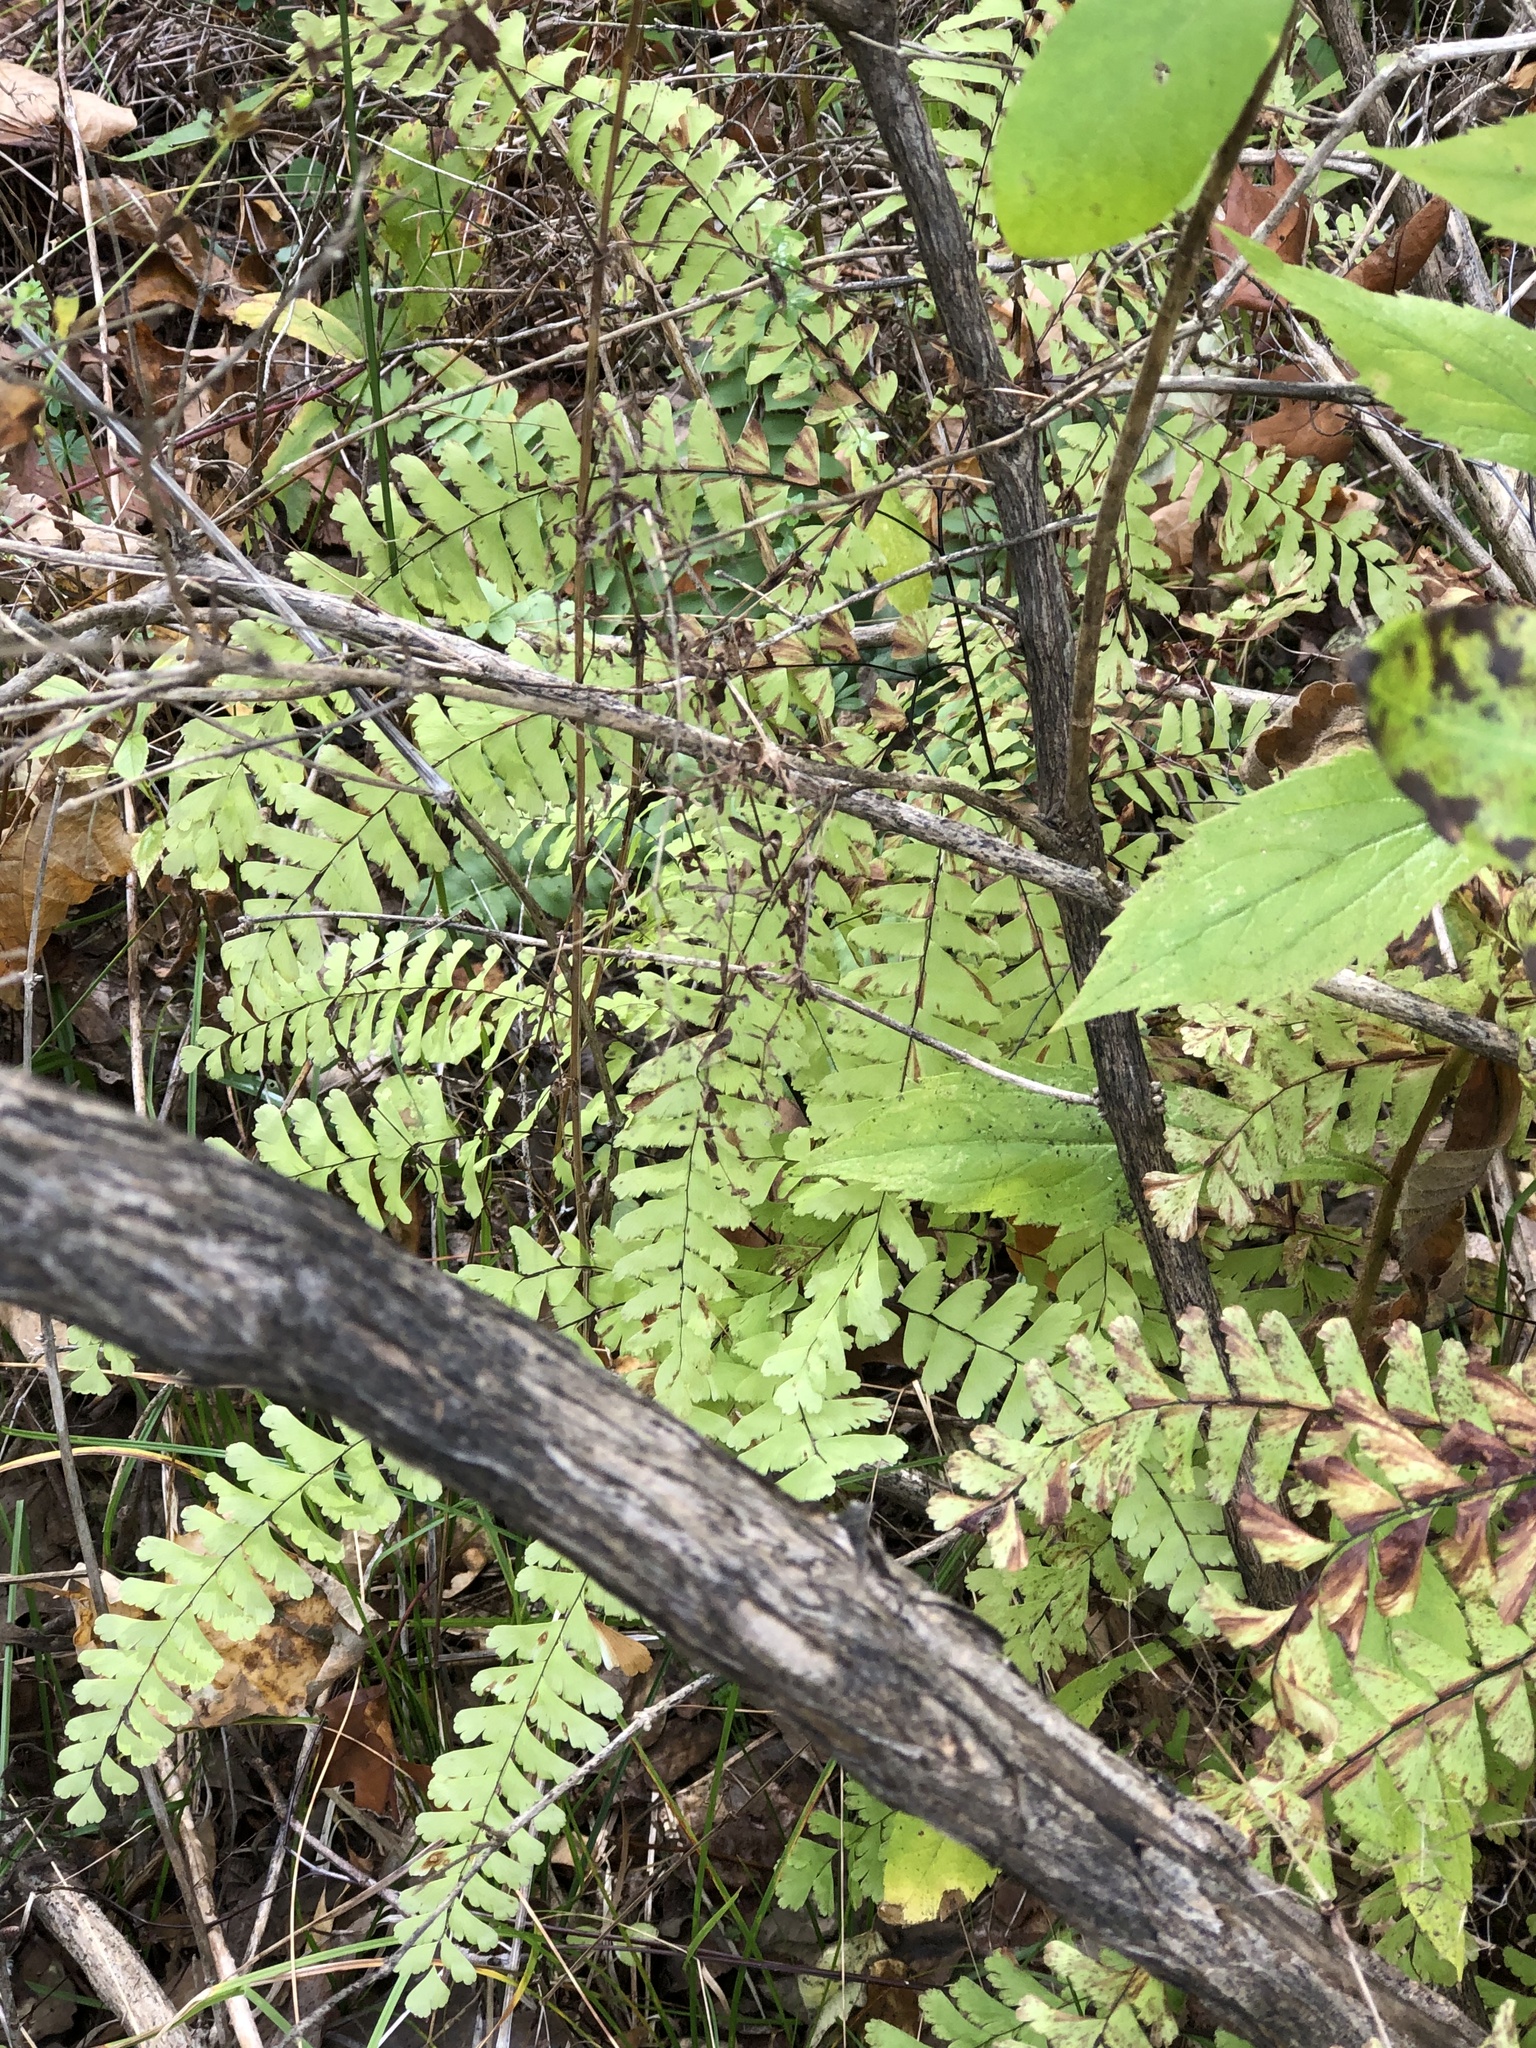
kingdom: Plantae
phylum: Tracheophyta
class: Polypodiopsida
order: Polypodiales
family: Pteridaceae
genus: Adiantum
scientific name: Adiantum pedatum
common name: Five-finger fern
